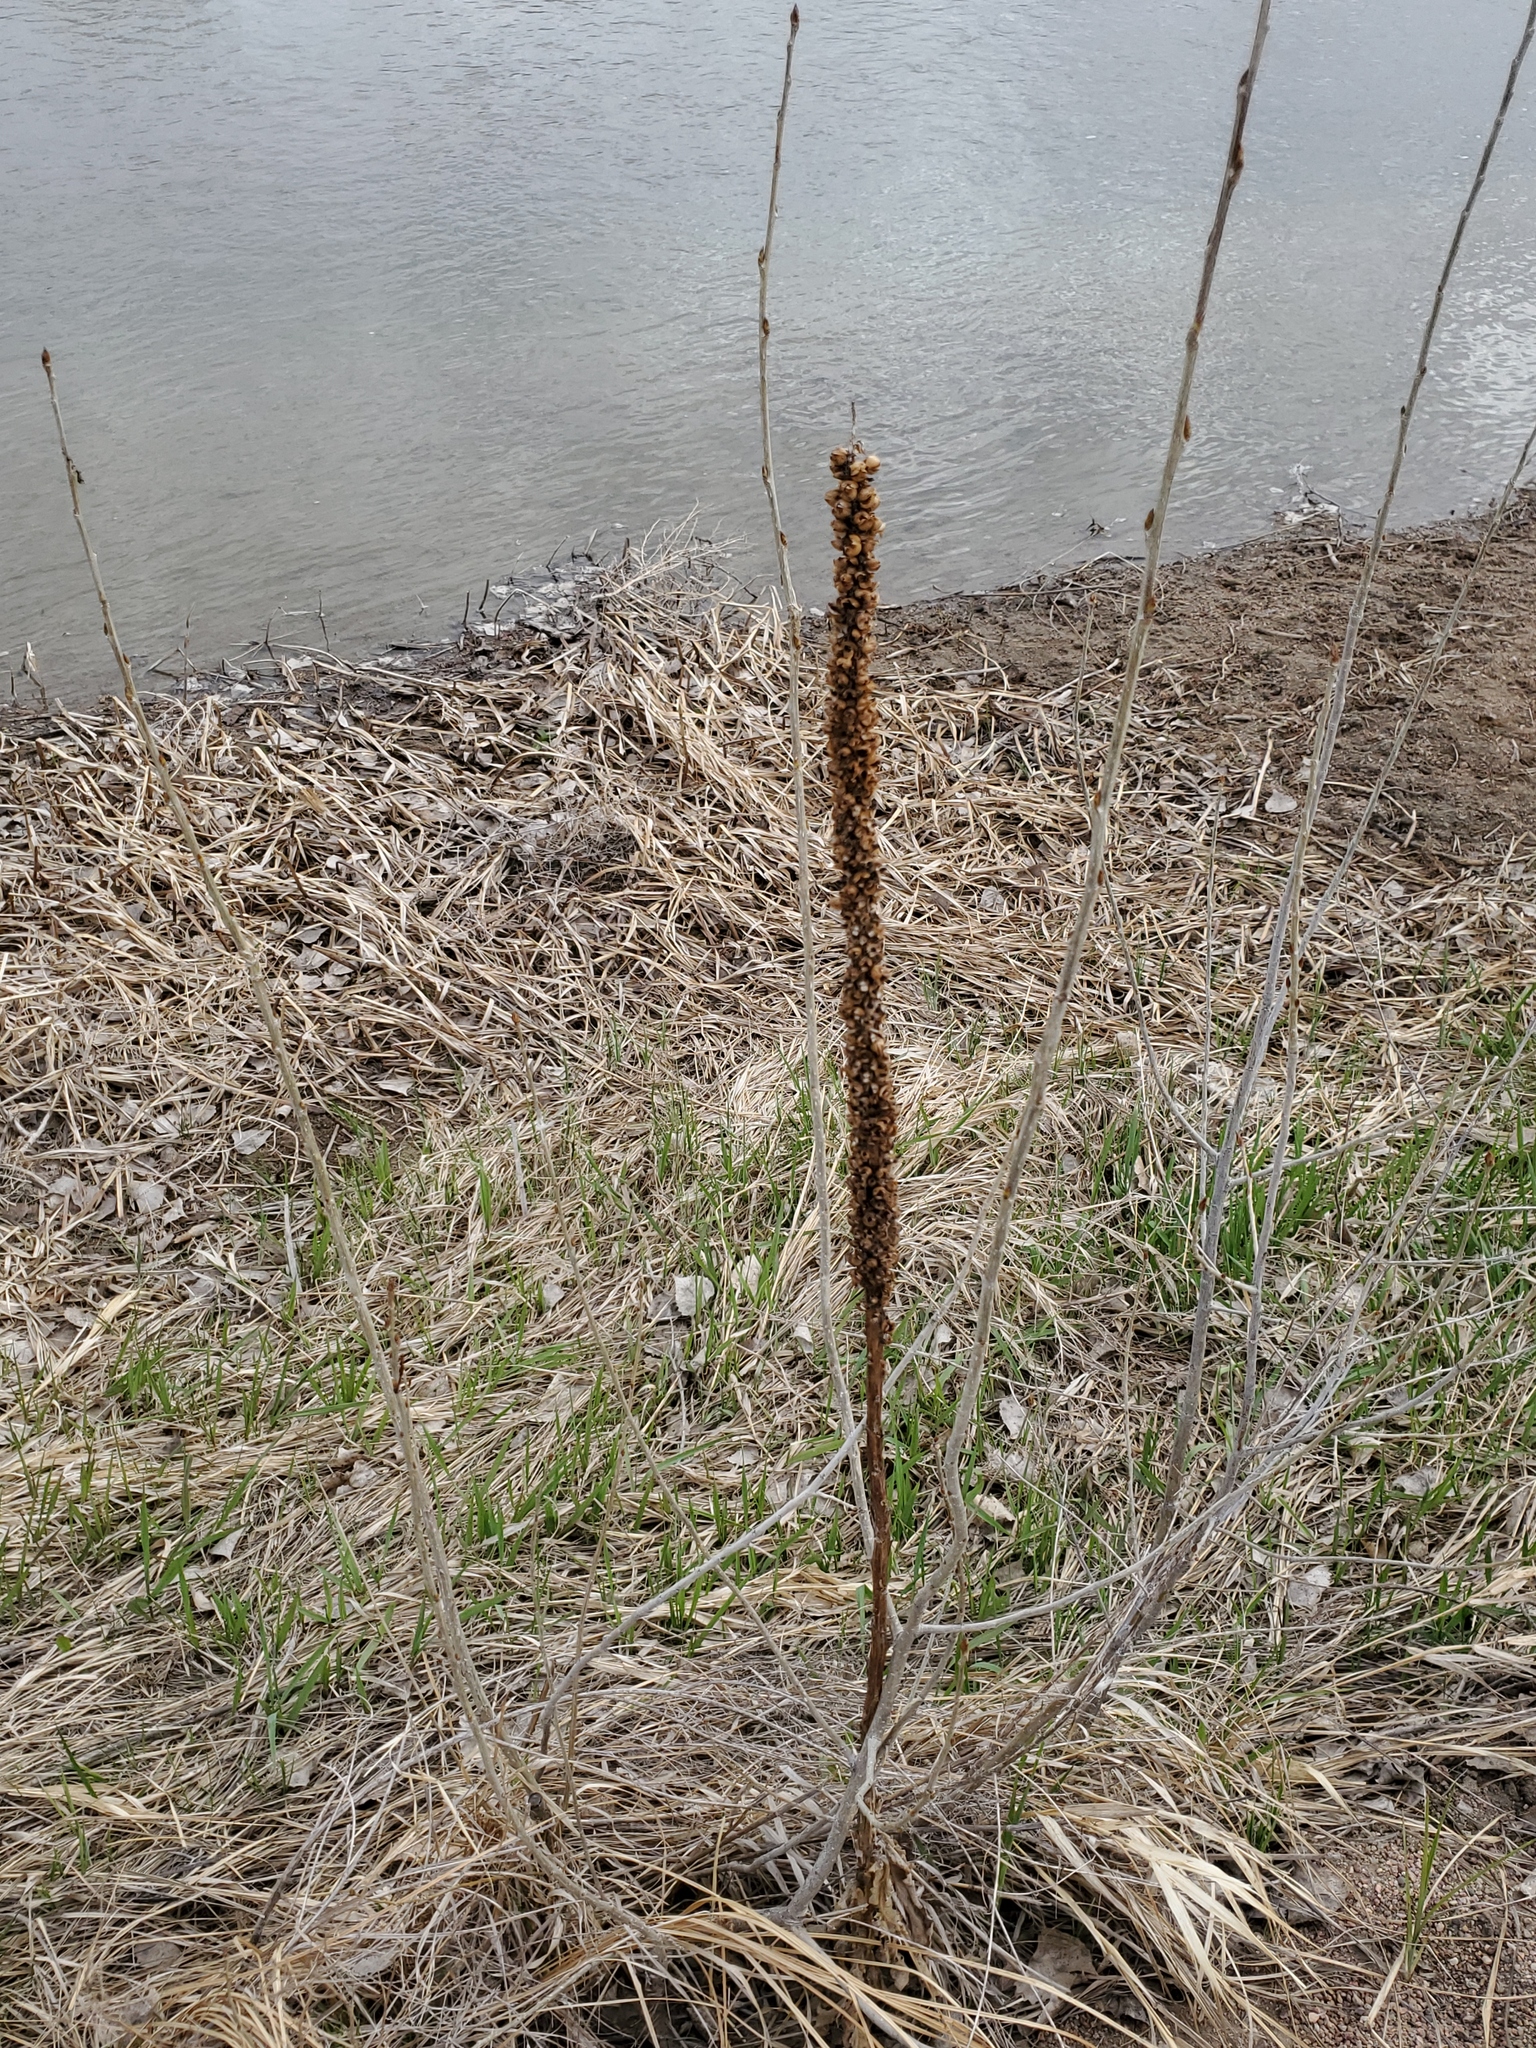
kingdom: Plantae
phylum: Tracheophyta
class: Magnoliopsida
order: Lamiales
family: Scrophulariaceae
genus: Verbascum
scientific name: Verbascum thapsus
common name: Common mullein
